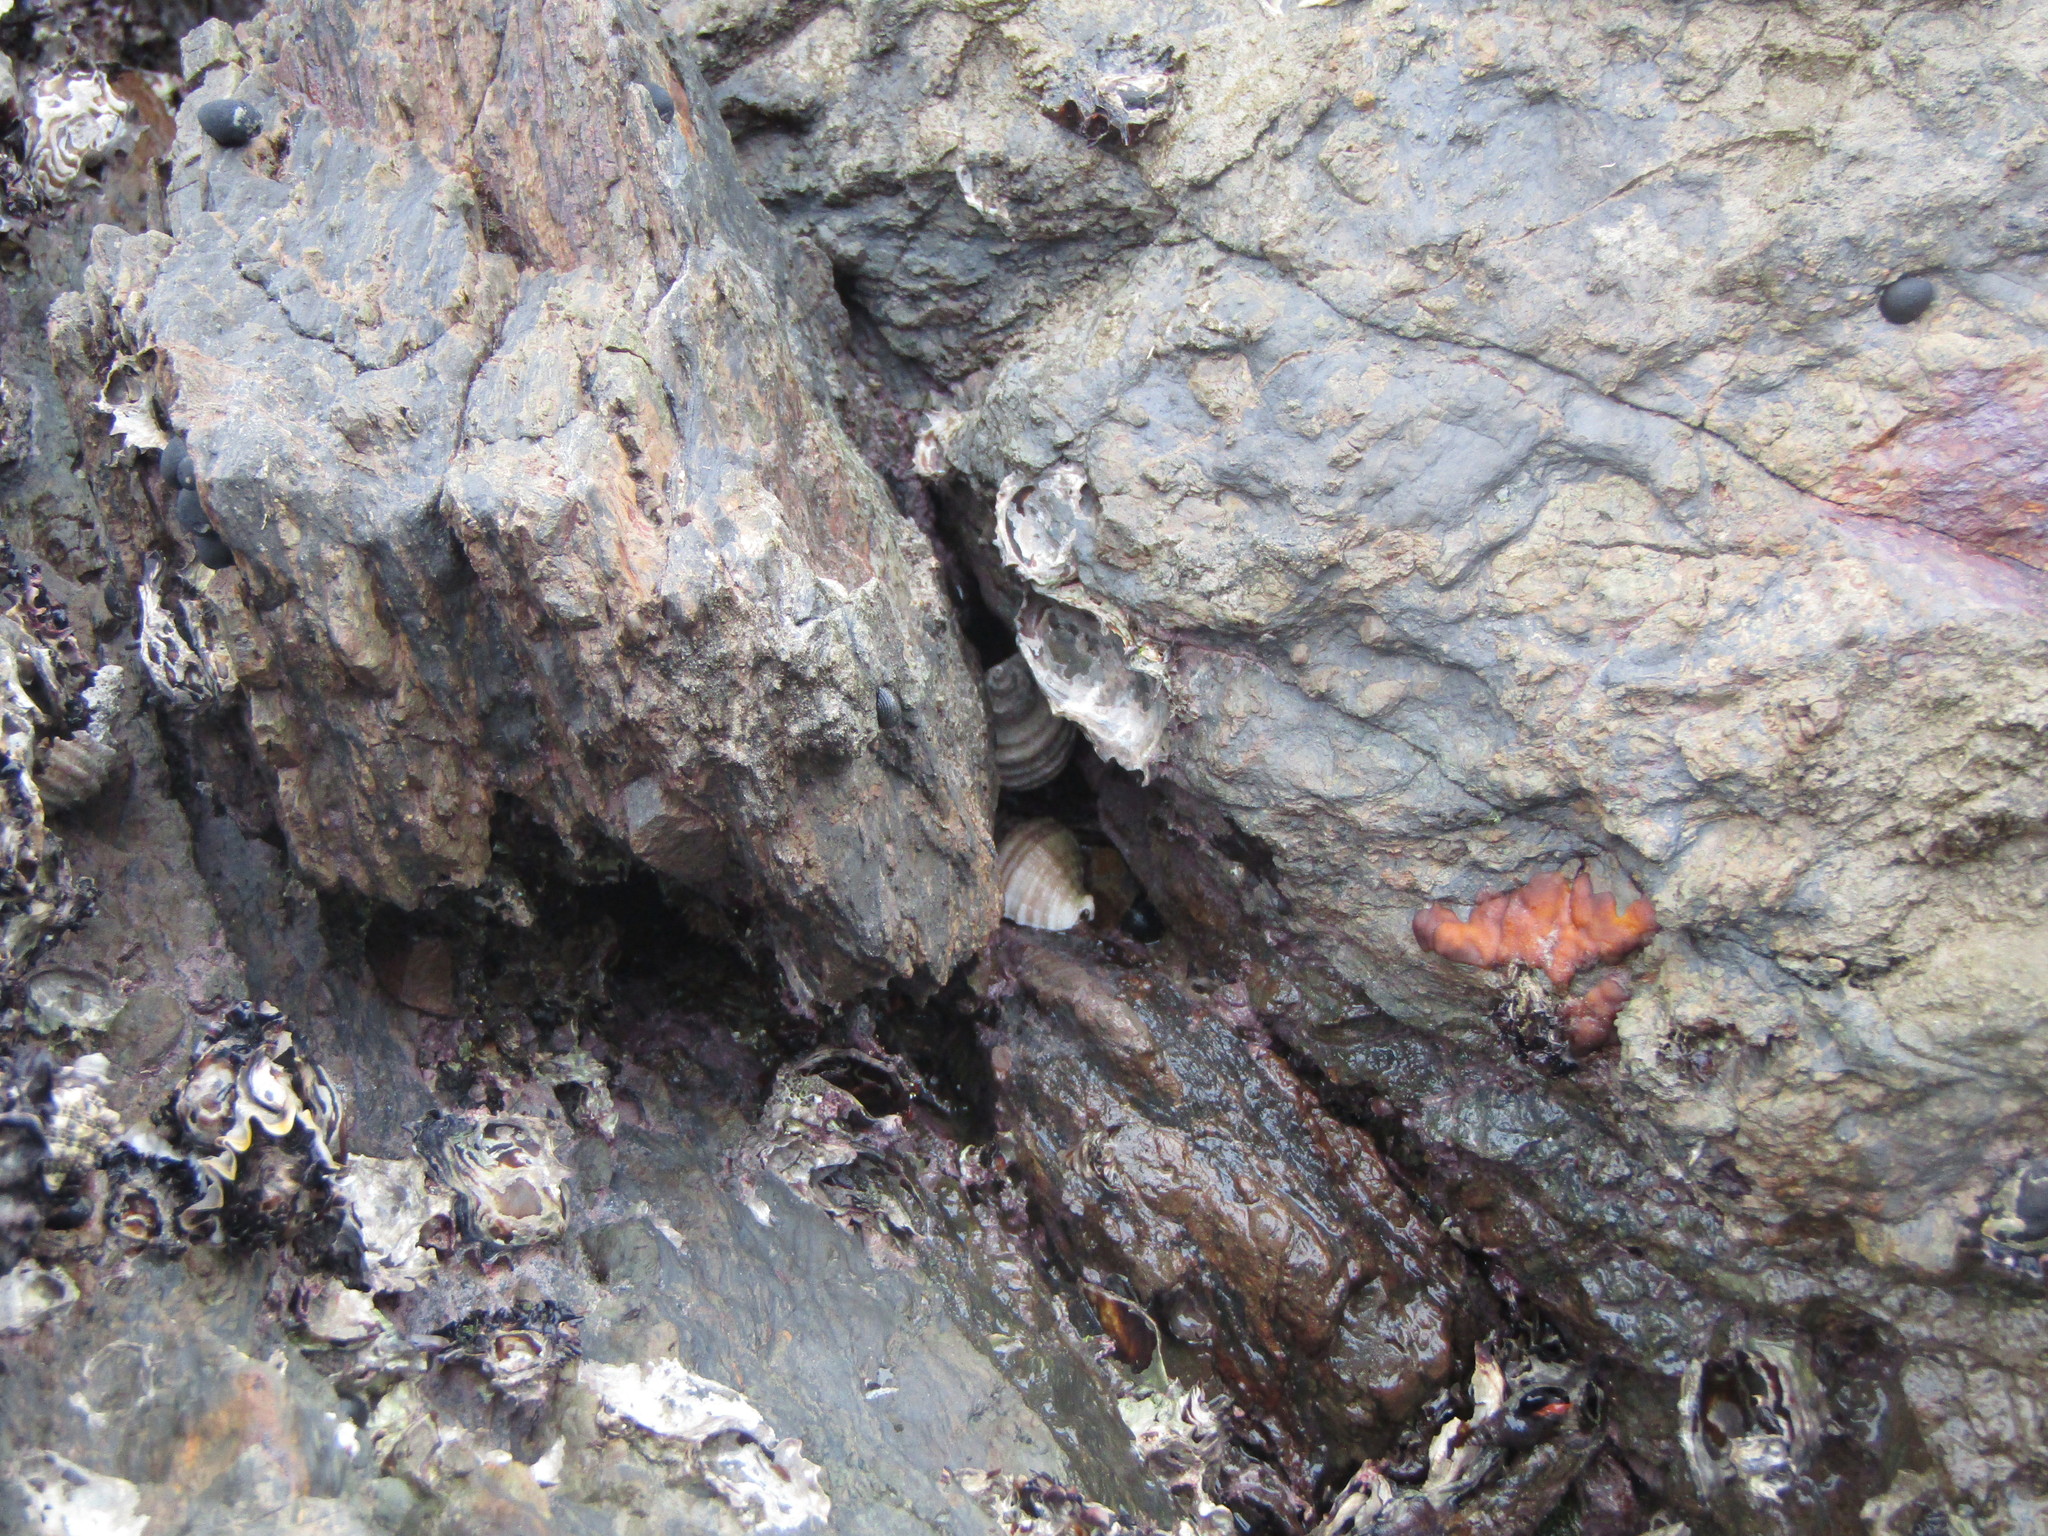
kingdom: Animalia
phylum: Mollusca
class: Gastropoda
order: Neogastropoda
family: Muricidae
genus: Dicathais
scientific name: Dicathais orbita
